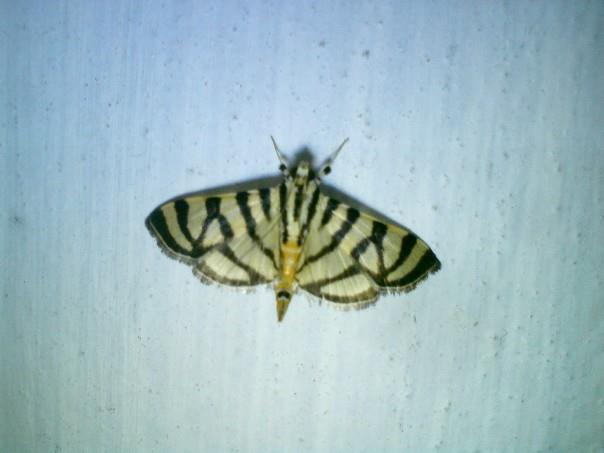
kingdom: Animalia
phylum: Arthropoda
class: Insecta
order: Lepidoptera
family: Crambidae
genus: Synclera
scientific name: Synclera
